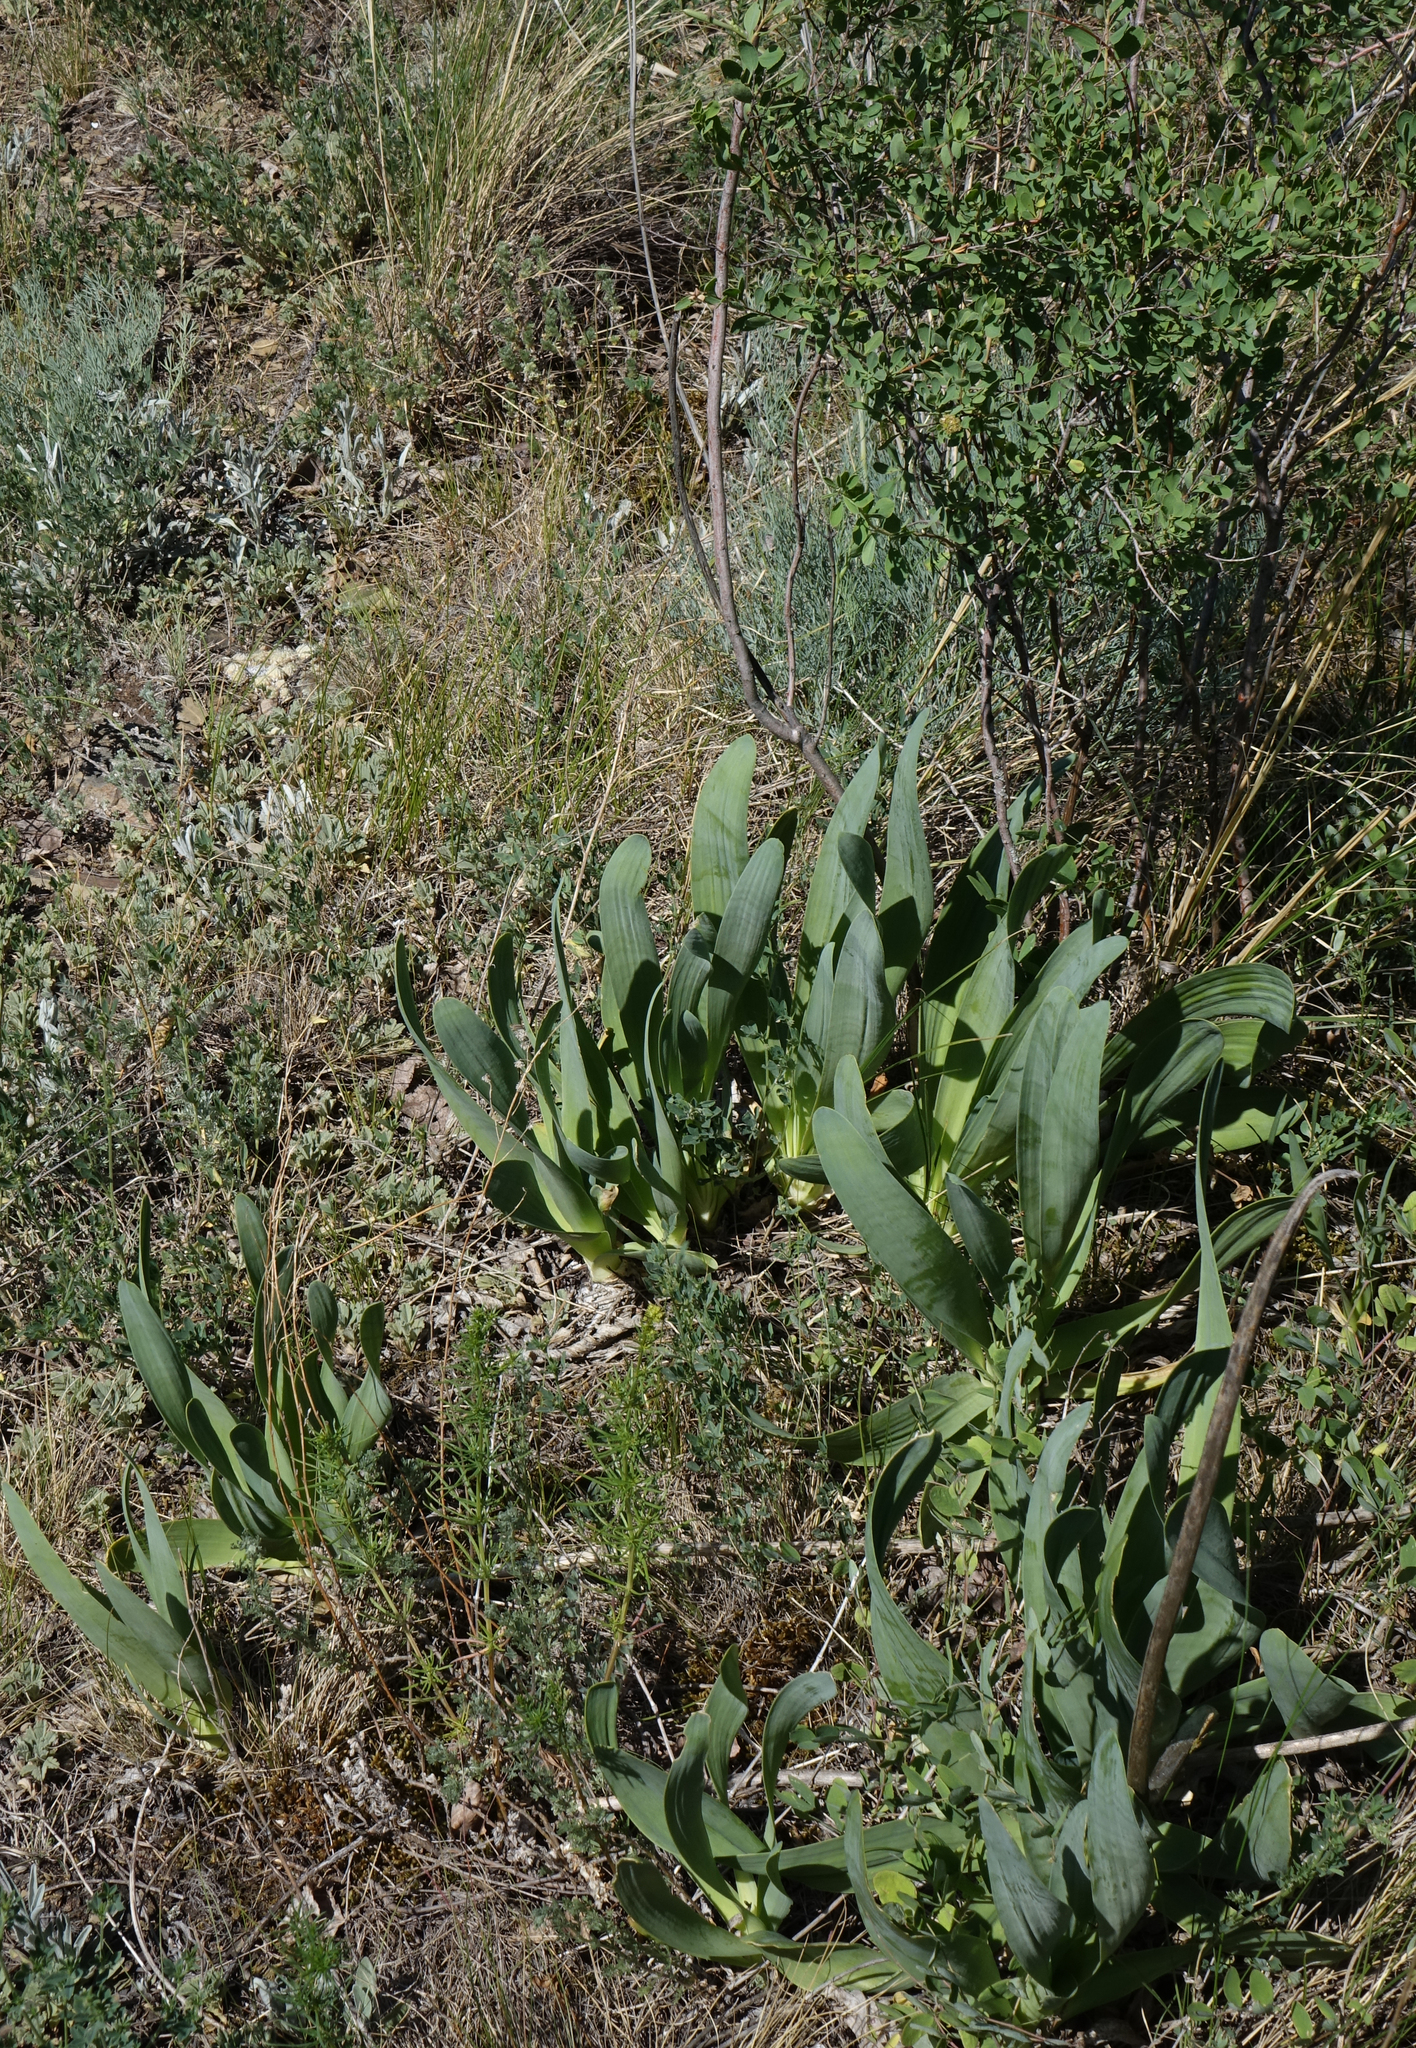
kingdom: Plantae
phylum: Tracheophyta
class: Liliopsida
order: Asparagales
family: Amaryllidaceae
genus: Allium
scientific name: Allium nutans
